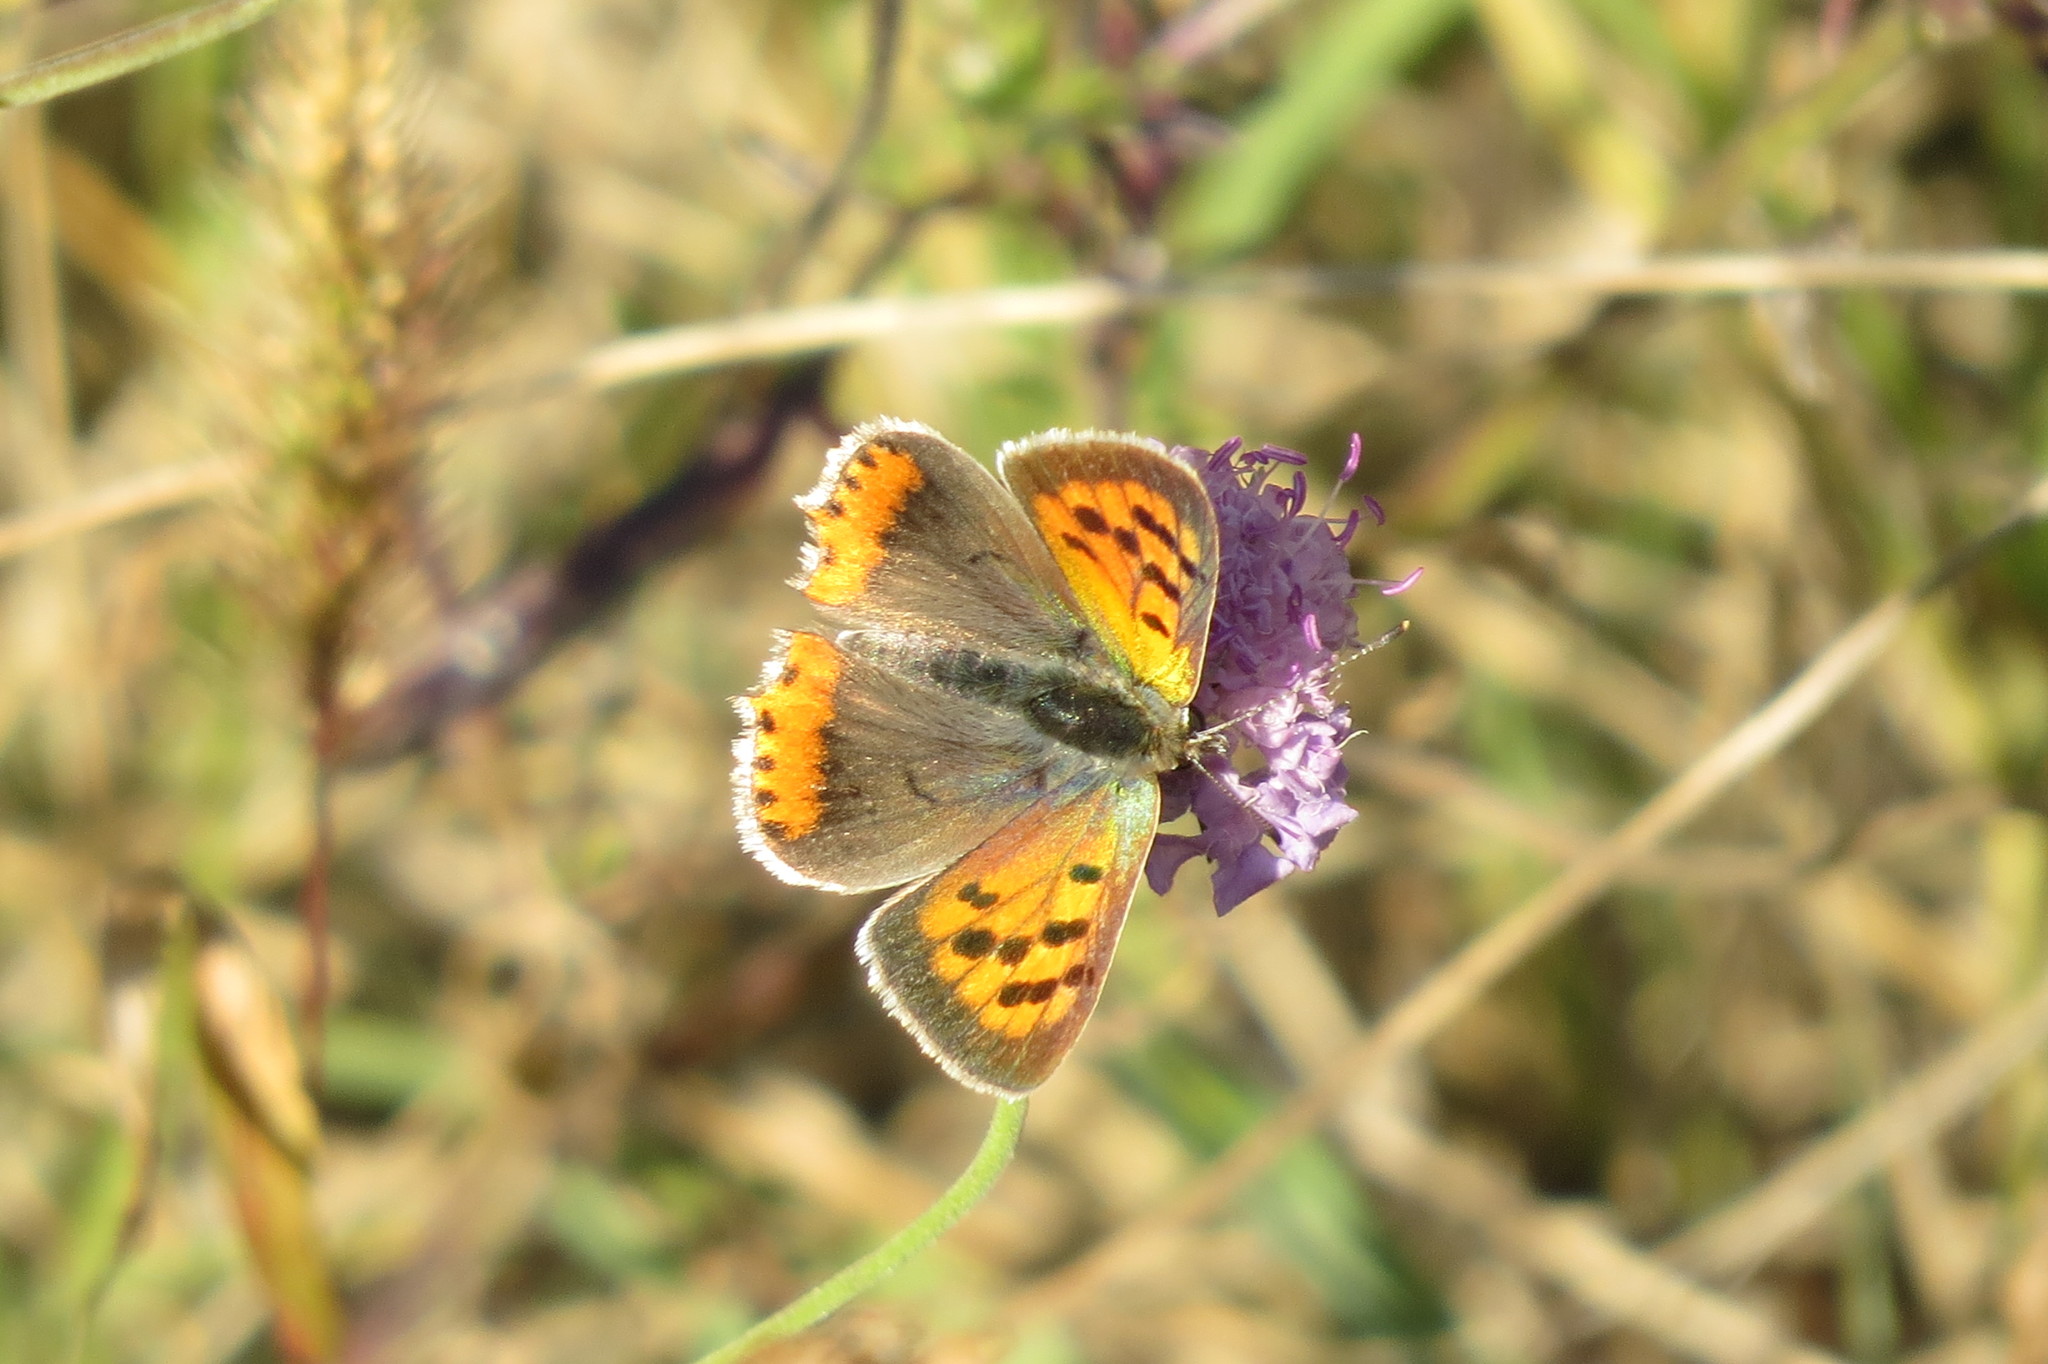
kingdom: Animalia
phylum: Arthropoda
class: Insecta
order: Lepidoptera
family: Lycaenidae
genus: Lycaena
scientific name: Lycaena phlaeas
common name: Small copper
